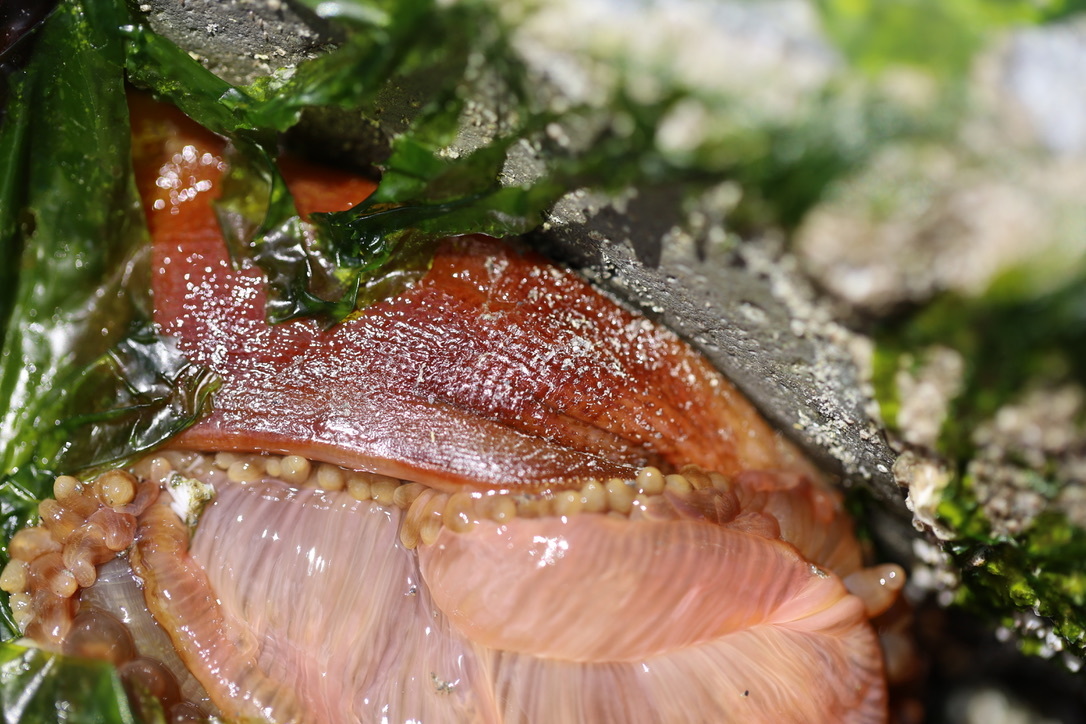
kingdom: Animalia
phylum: Cnidaria
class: Anthozoa
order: Actiniaria
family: Actiniidae
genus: Urticina
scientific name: Urticina grebelnyi
